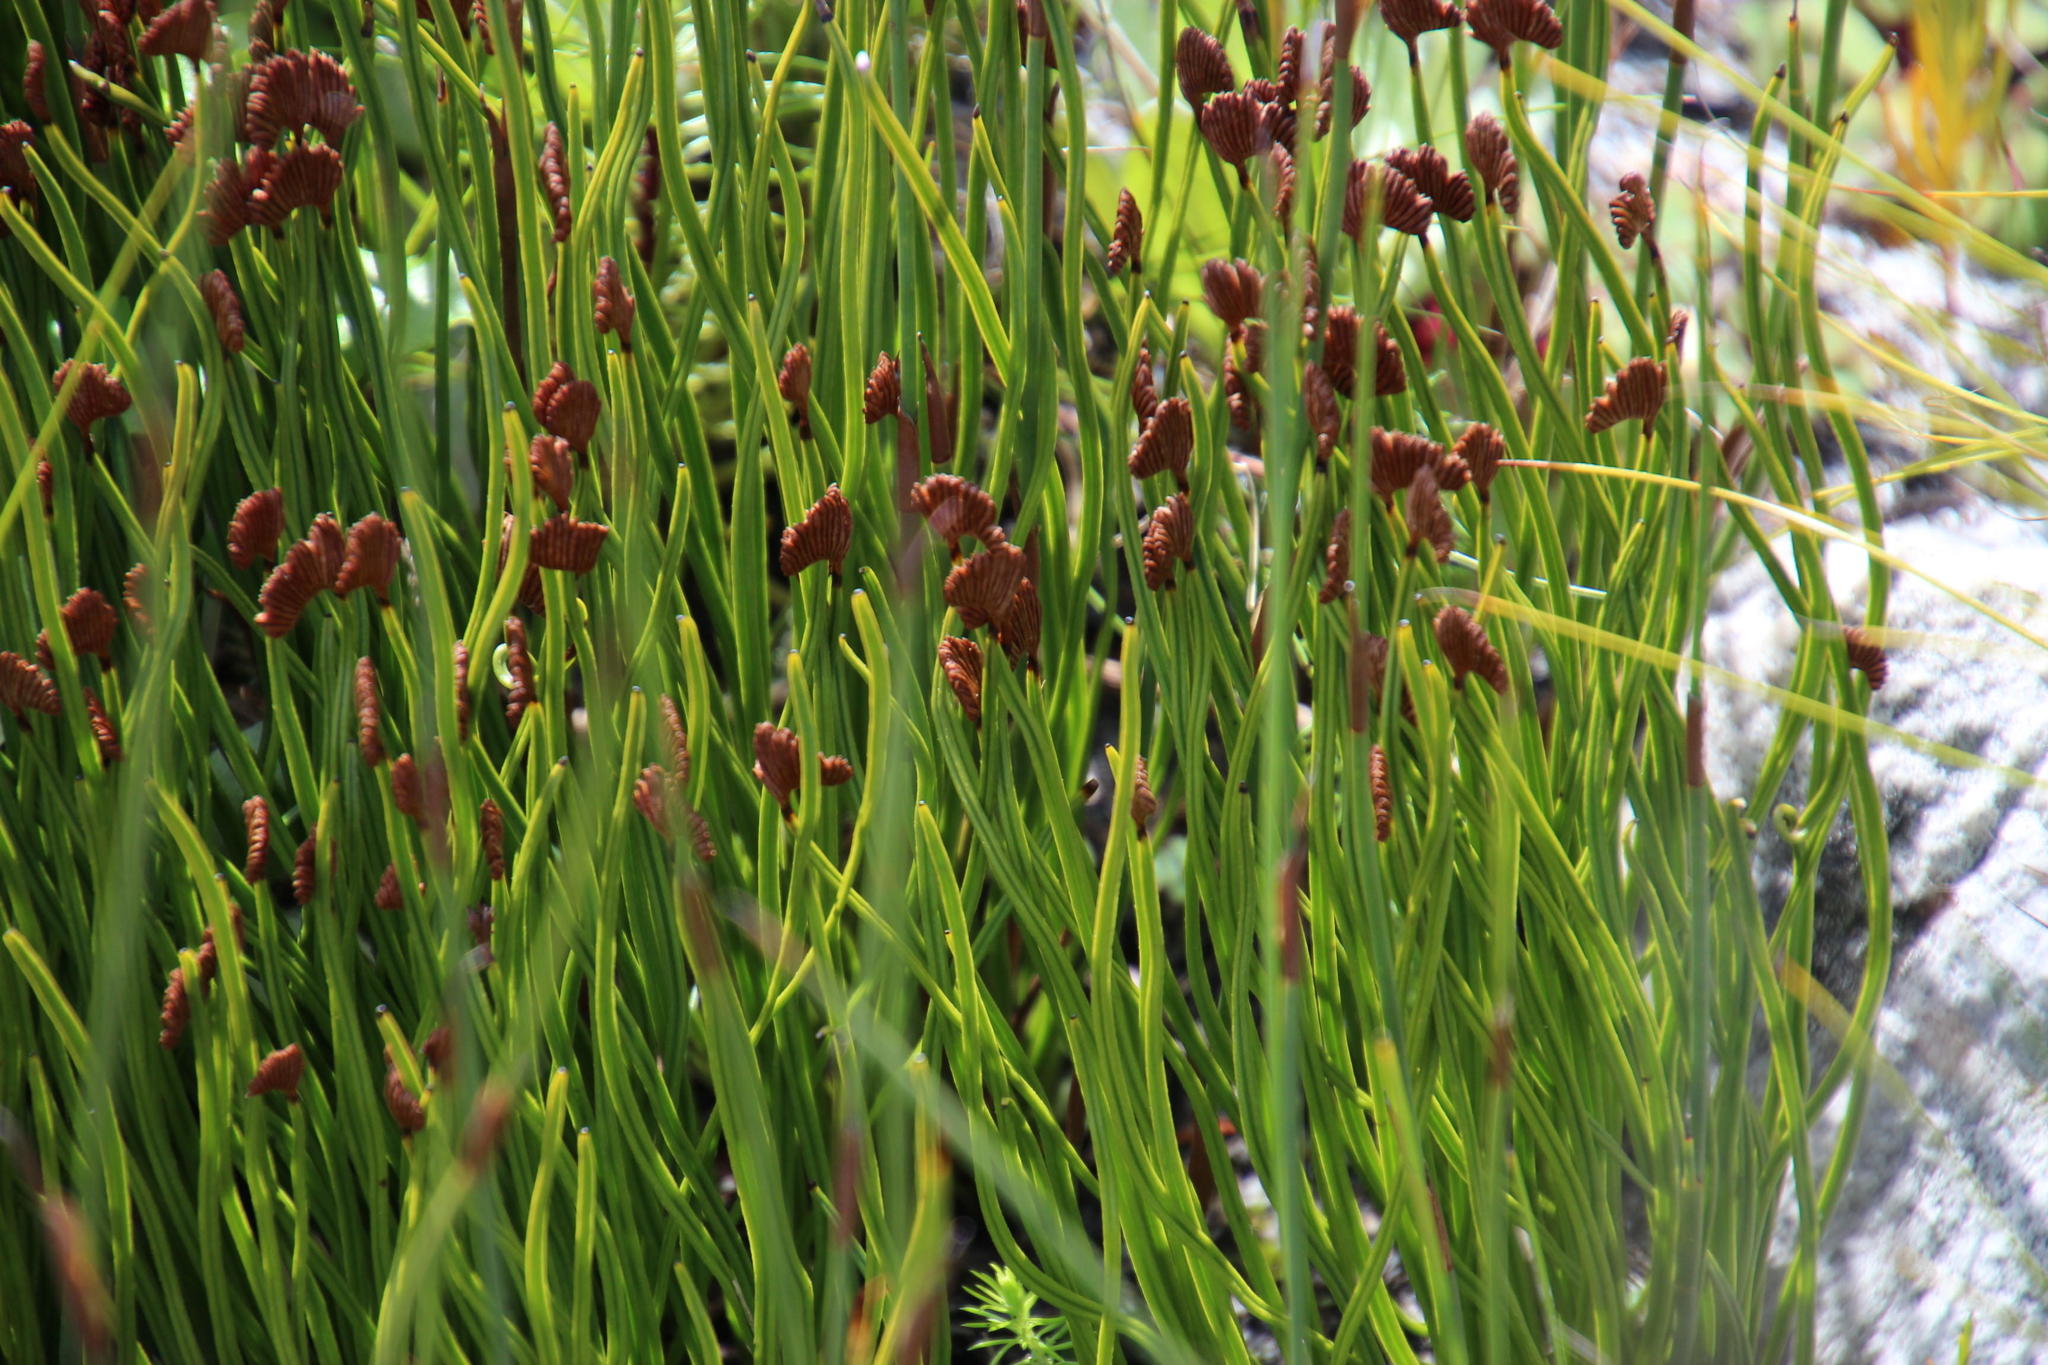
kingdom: Plantae
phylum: Tracheophyta
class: Polypodiopsida
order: Schizaeales
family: Schizaeaceae
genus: Schizaea
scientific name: Schizaea pectinata
